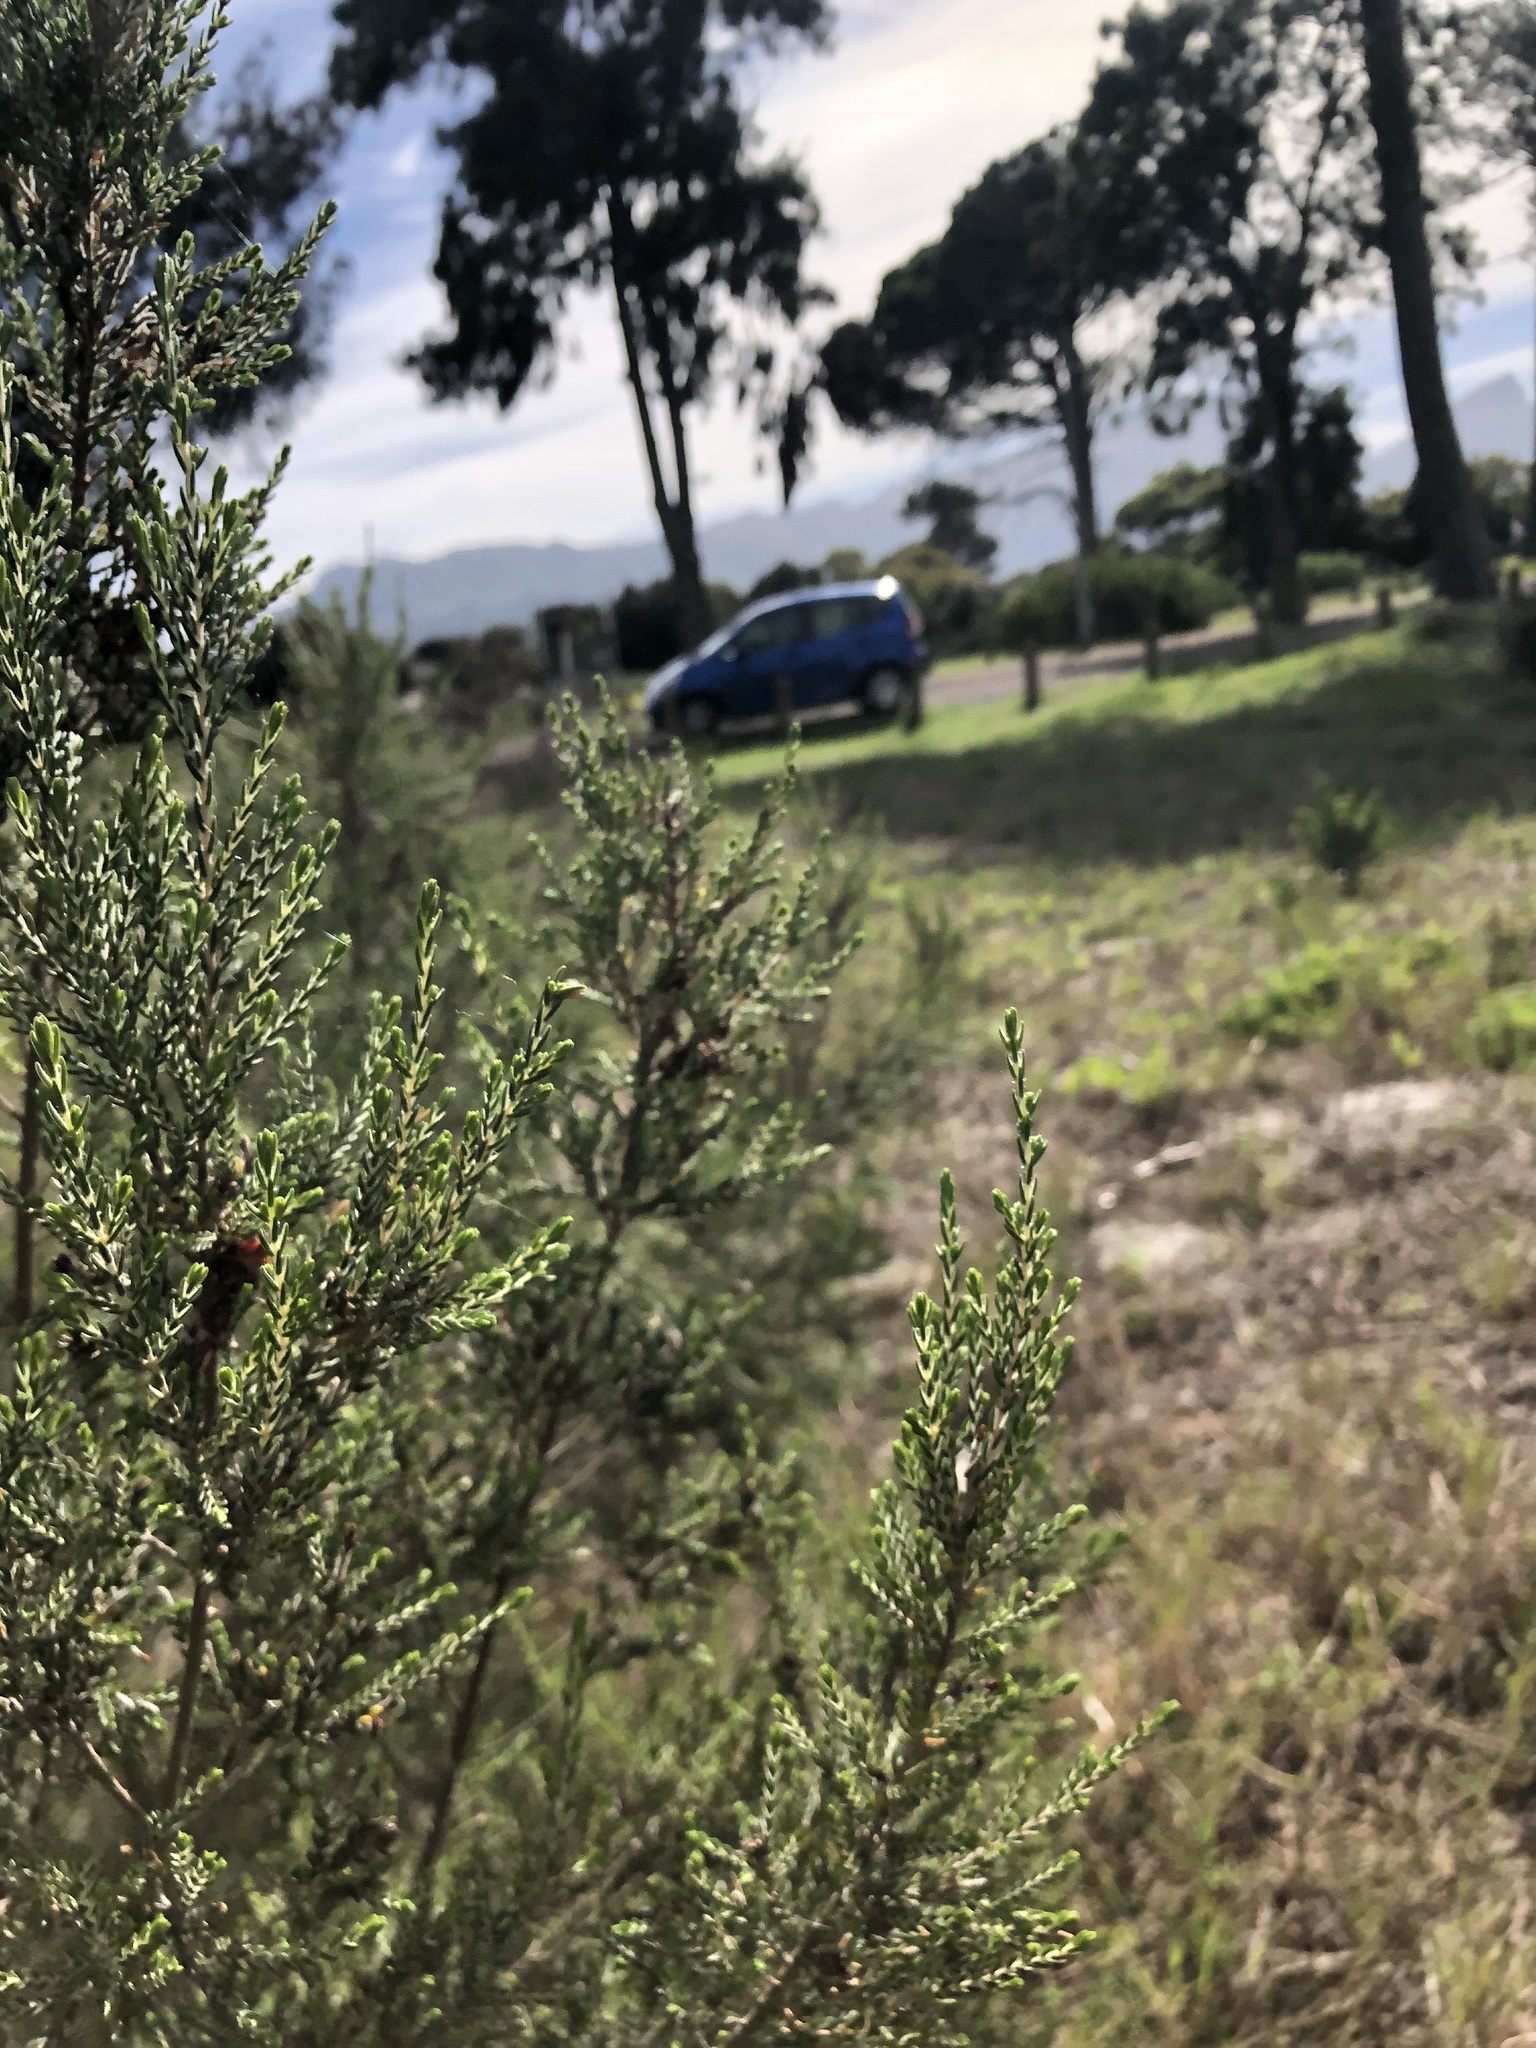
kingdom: Plantae
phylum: Tracheophyta
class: Magnoliopsida
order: Malvales
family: Thymelaeaceae
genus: Passerina
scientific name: Passerina corymbosa
